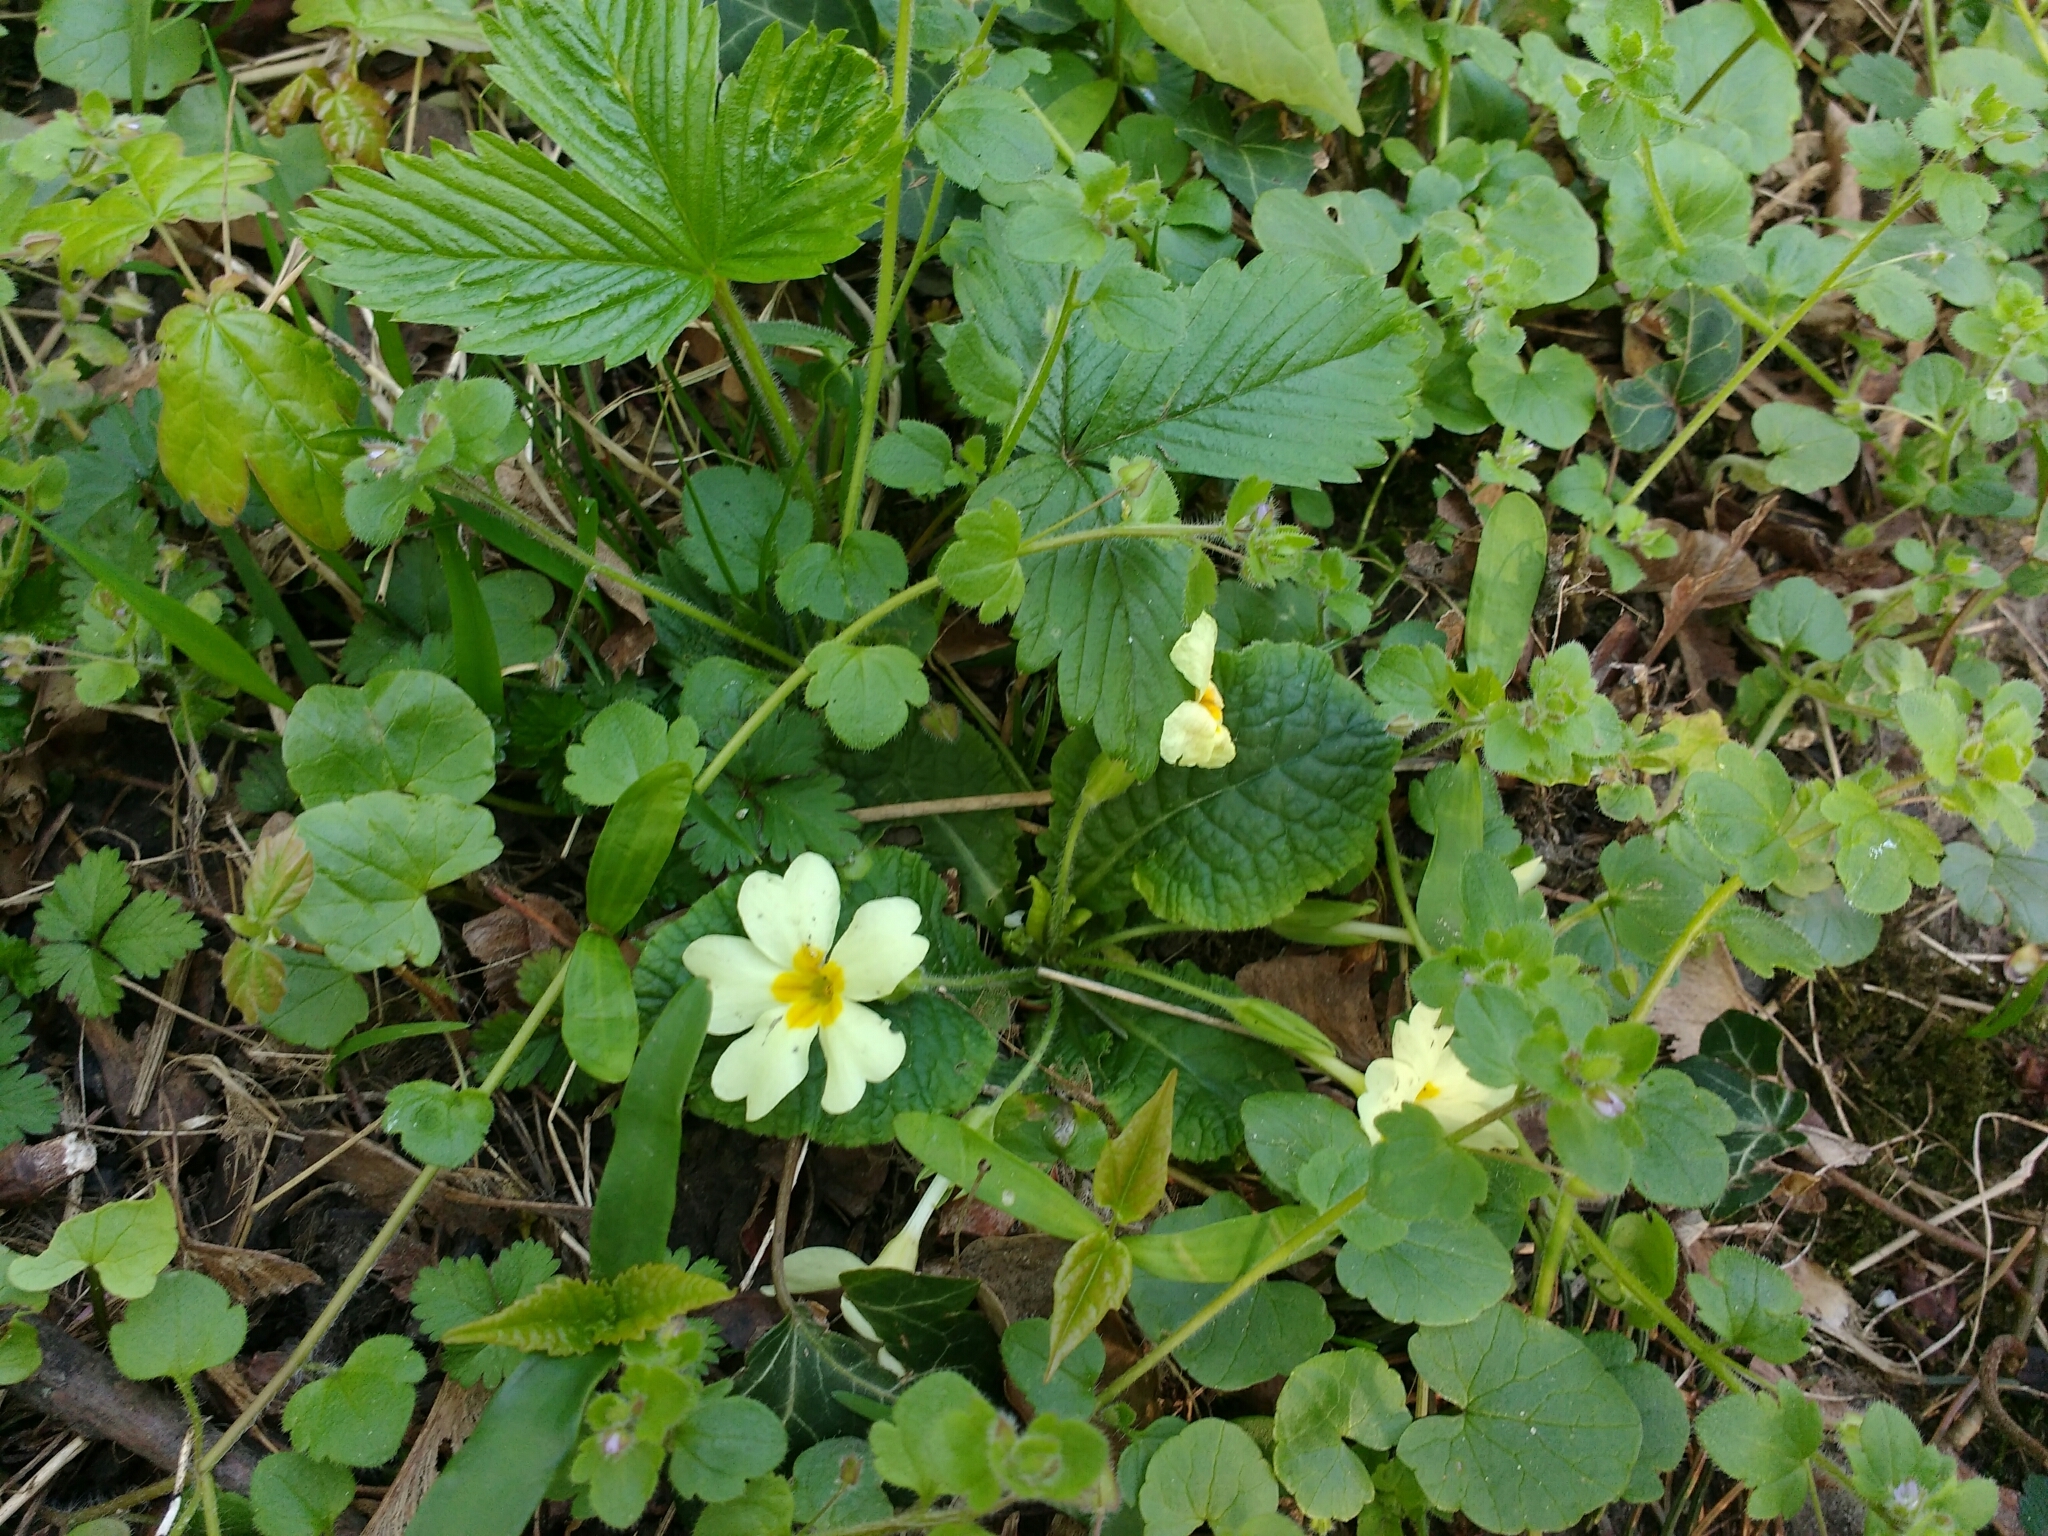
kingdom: Plantae
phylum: Tracheophyta
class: Magnoliopsida
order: Ericales
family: Primulaceae
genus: Primula
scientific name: Primula vulgaris
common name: Primrose
